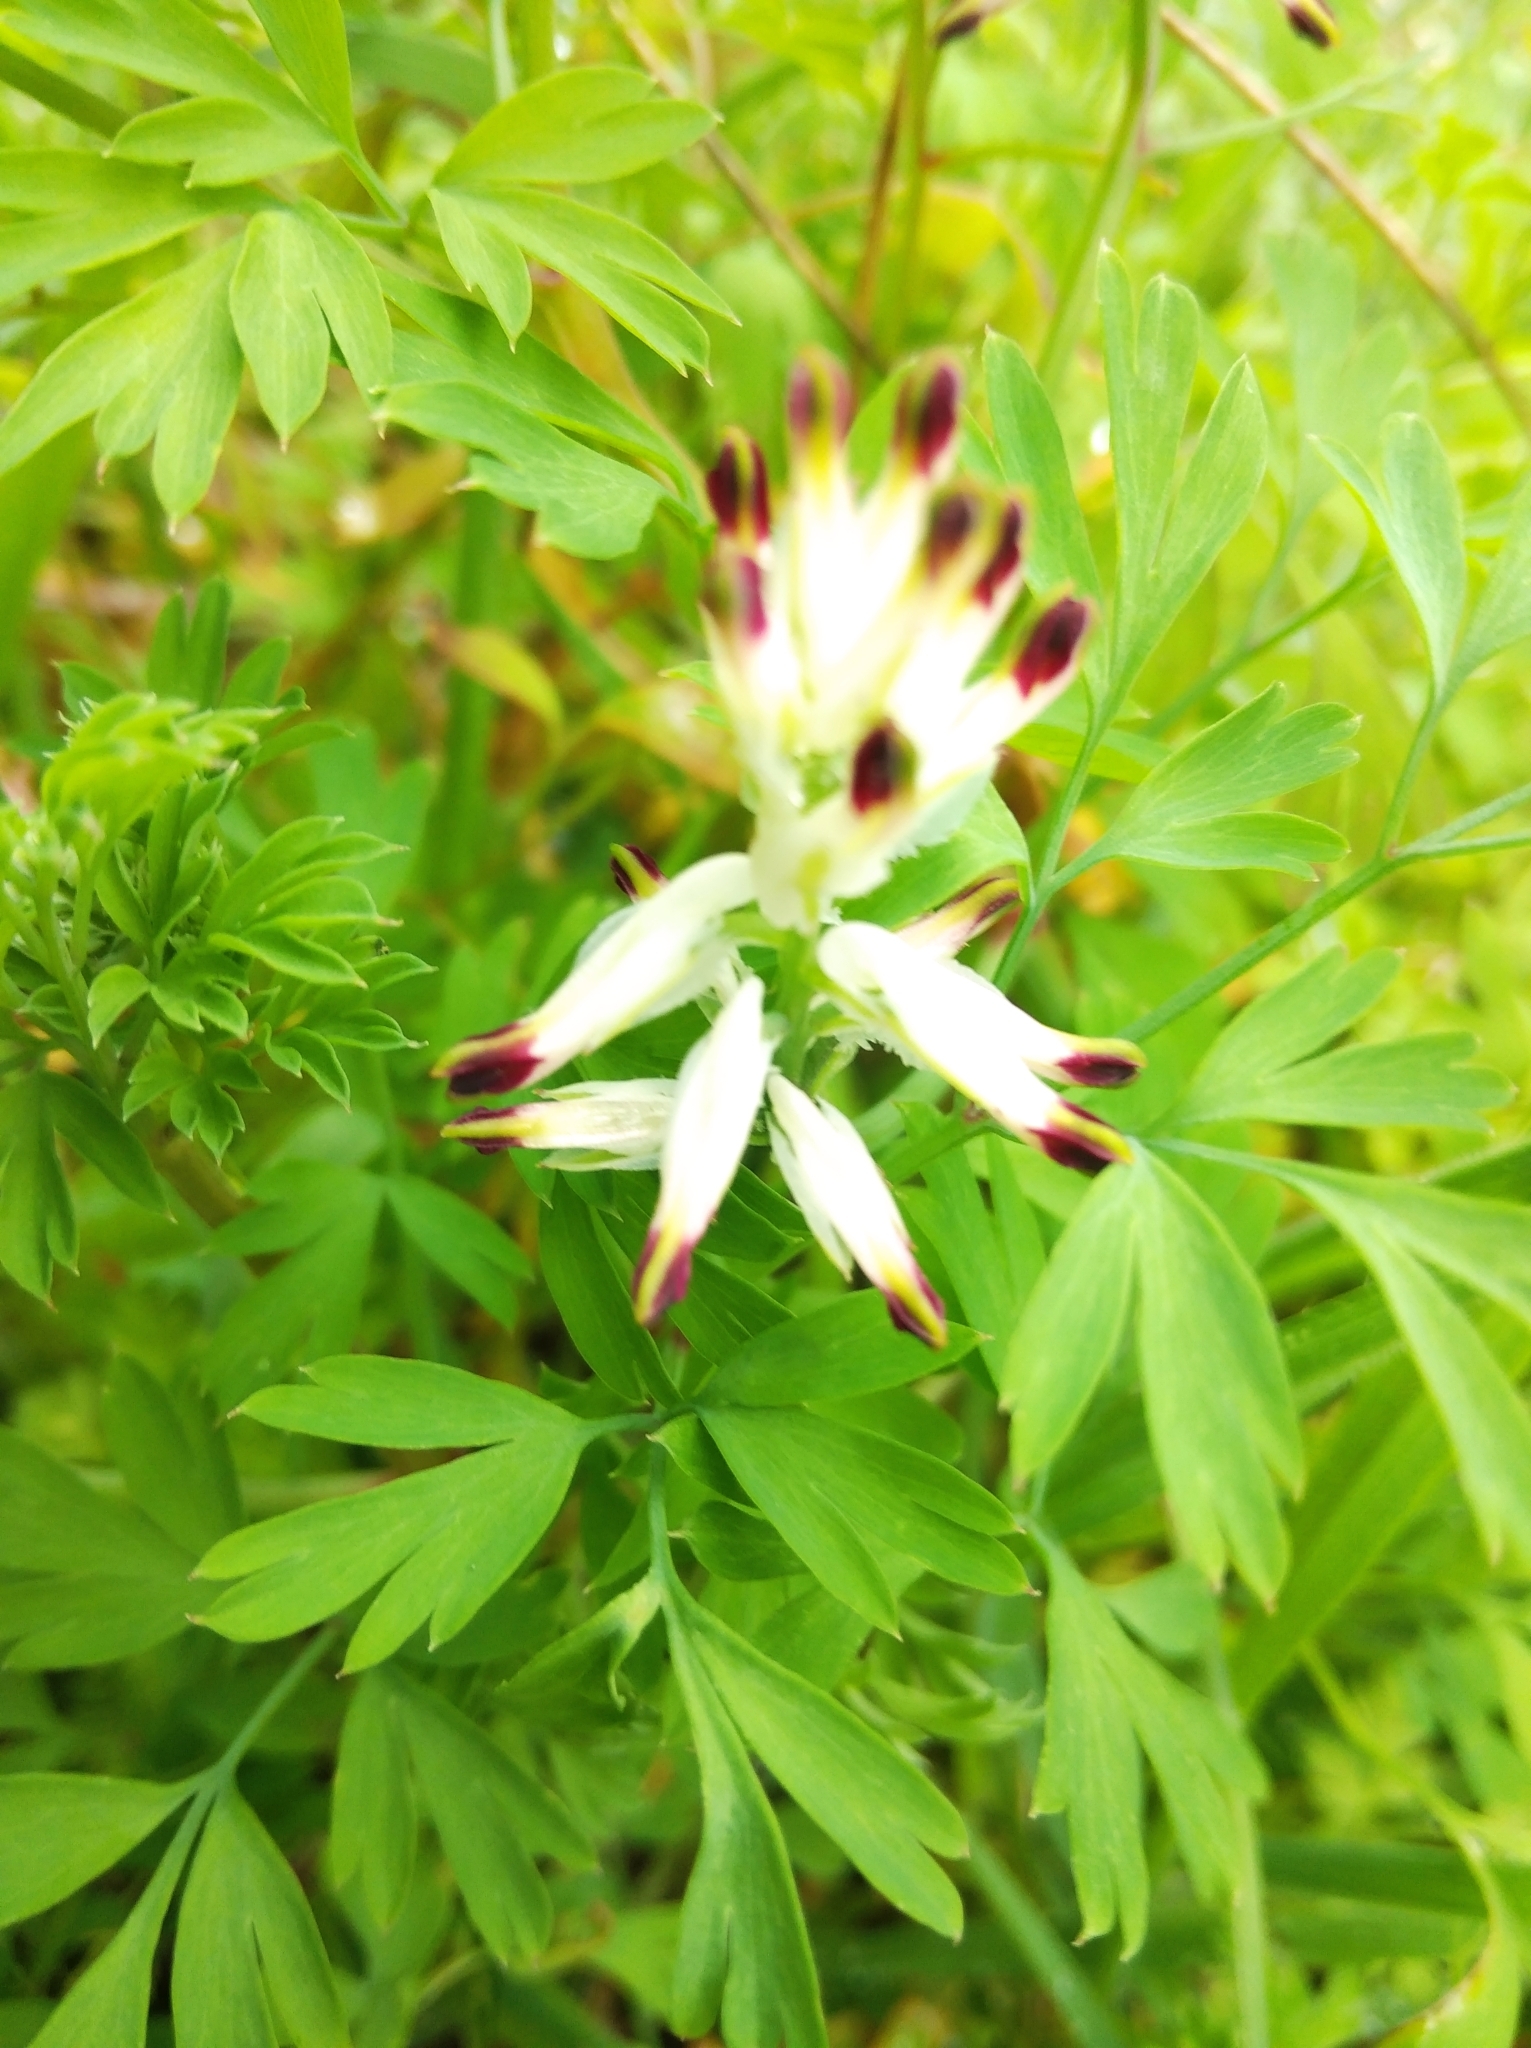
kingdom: Plantae
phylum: Tracheophyta
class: Magnoliopsida
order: Ranunculales
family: Papaveraceae
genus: Fumaria
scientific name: Fumaria capreolata
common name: White ramping-fumitory
